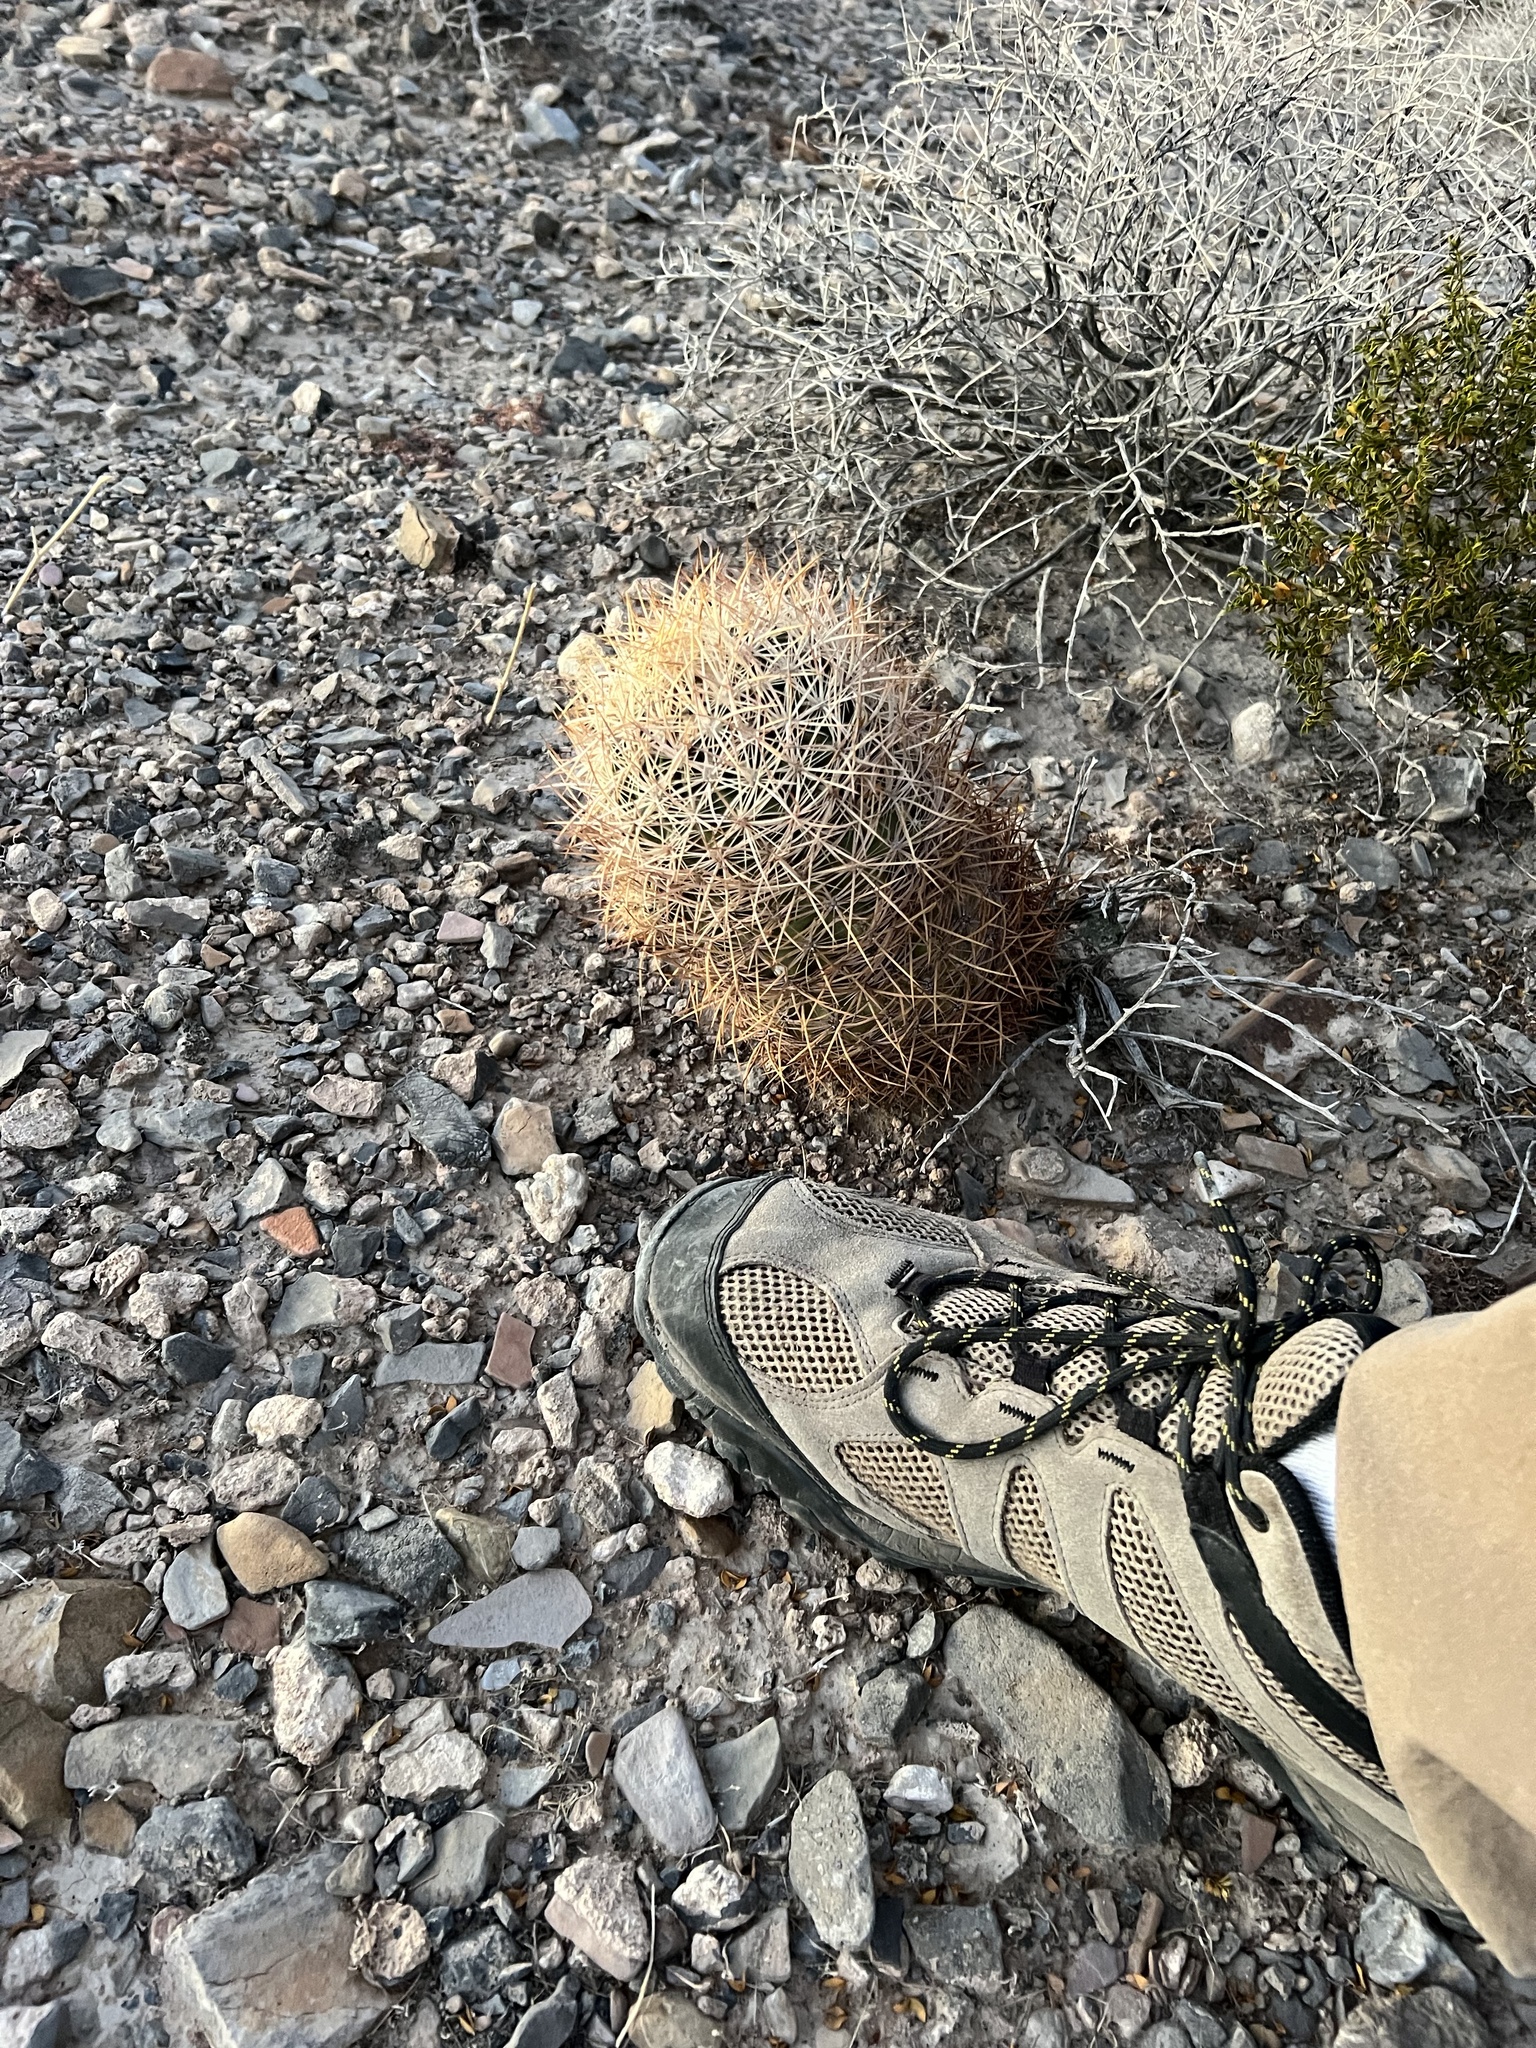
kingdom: Plantae
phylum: Tracheophyta
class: Magnoliopsida
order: Caryophyllales
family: Cactaceae
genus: Sclerocactus
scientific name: Sclerocactus johnsonii
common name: Eight-spine fishhook cactus
